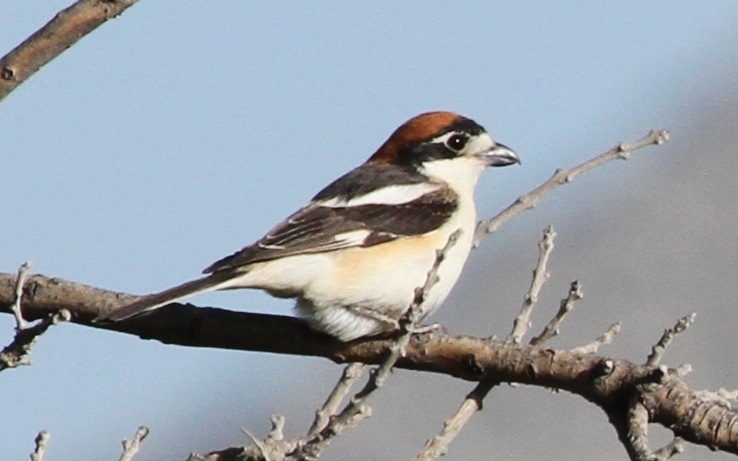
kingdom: Animalia
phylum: Chordata
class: Aves
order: Passeriformes
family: Laniidae
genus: Lanius
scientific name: Lanius senator
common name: Woodchat shrike
